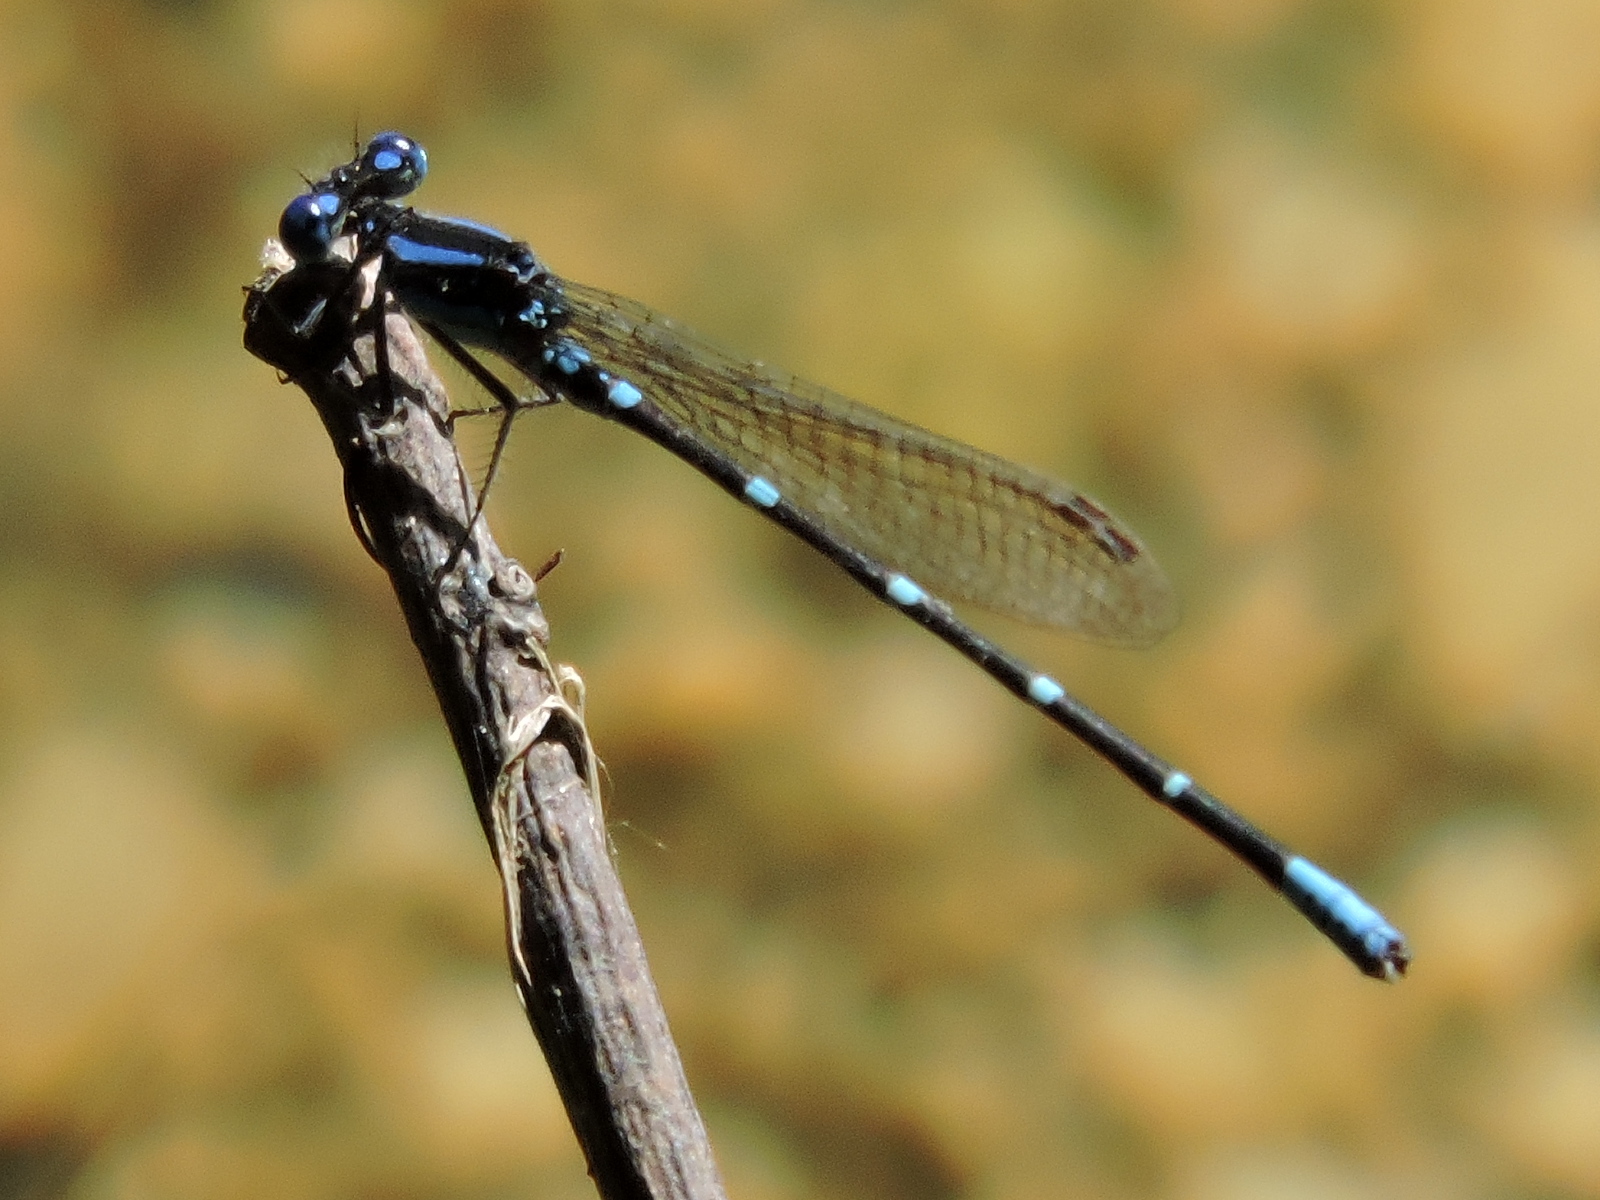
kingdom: Animalia
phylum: Arthropoda
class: Insecta
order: Odonata
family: Coenagrionidae
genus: Argia
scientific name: Argia sedula
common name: Blue-ringed dancer
